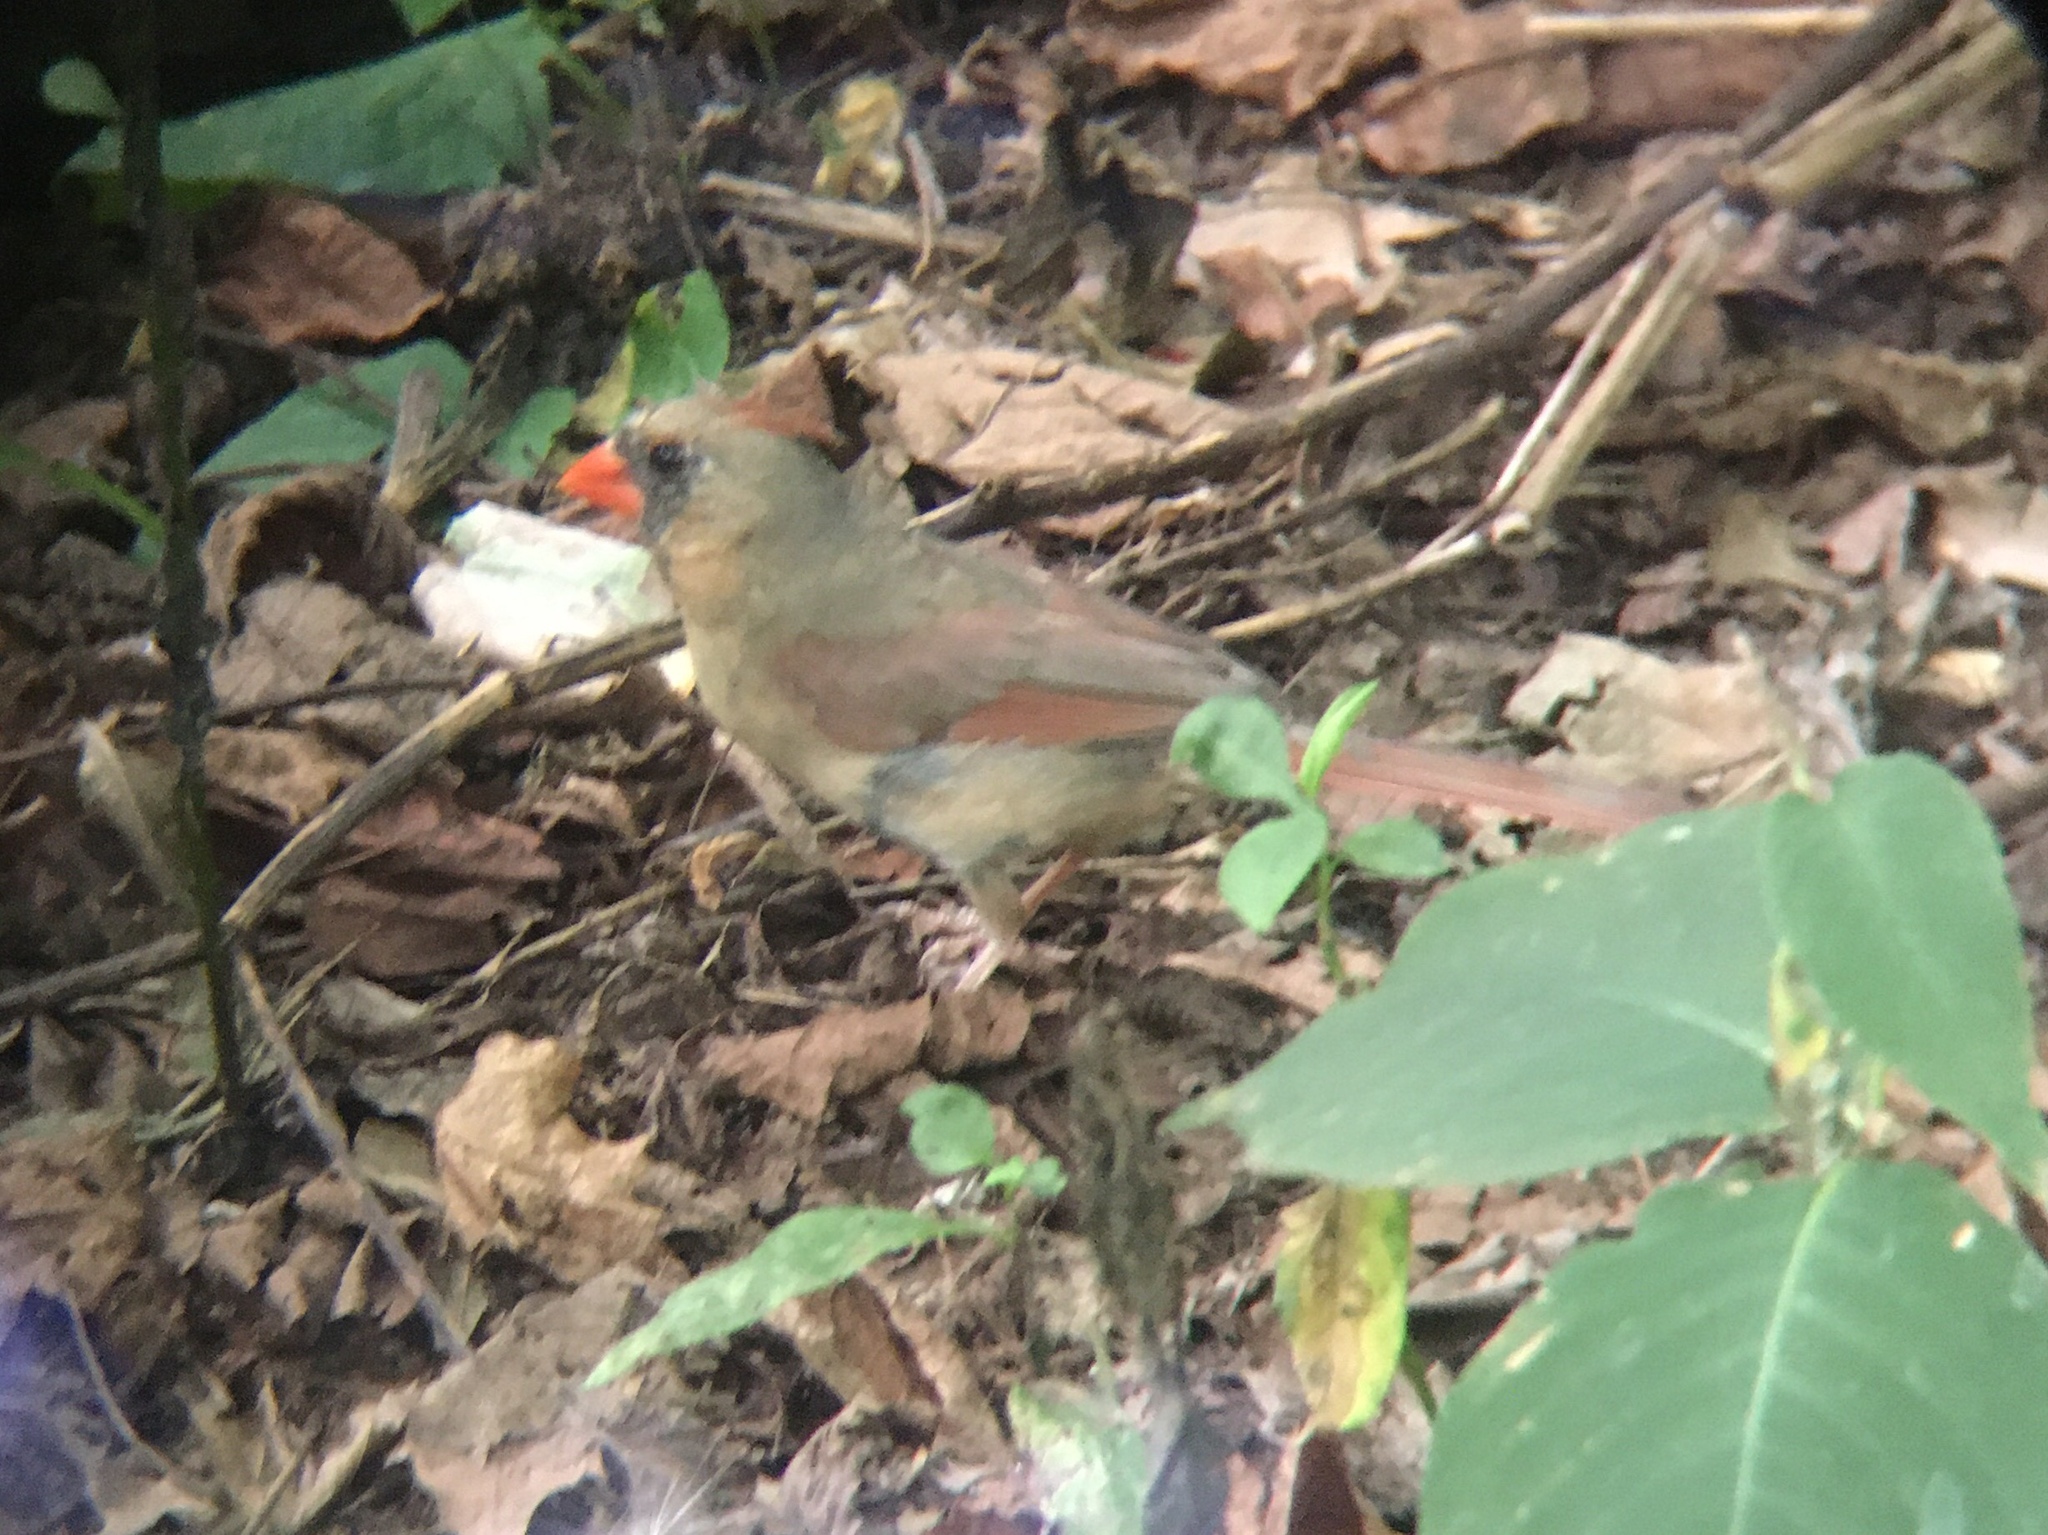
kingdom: Animalia
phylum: Chordata
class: Aves
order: Passeriformes
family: Cardinalidae
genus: Cardinalis
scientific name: Cardinalis cardinalis
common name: Northern cardinal
